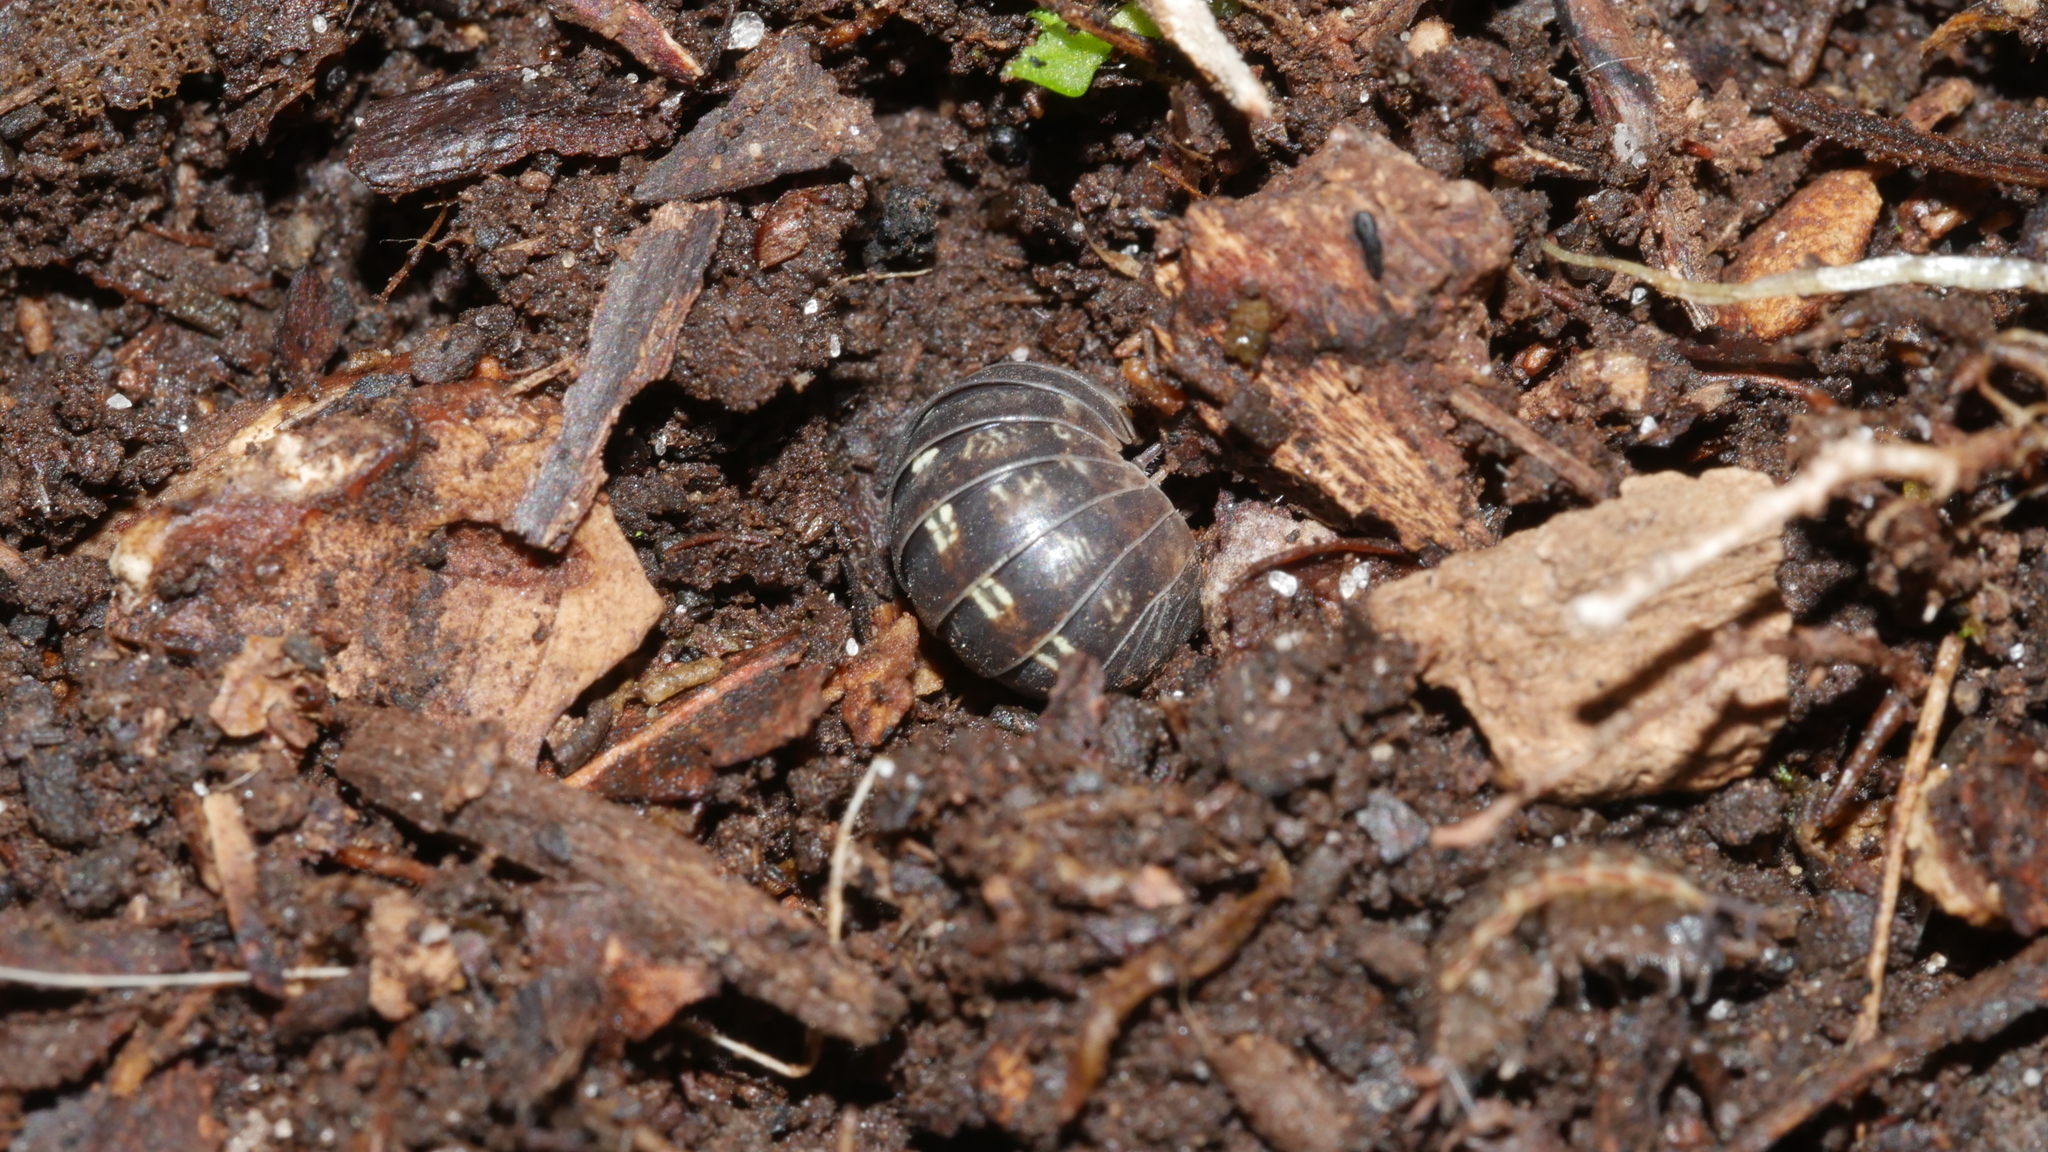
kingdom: Animalia
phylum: Arthropoda
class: Malacostraca
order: Isopoda
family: Armadillidiidae
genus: Armadillidium
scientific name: Armadillidium vulgare
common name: Common pill woodlouse
